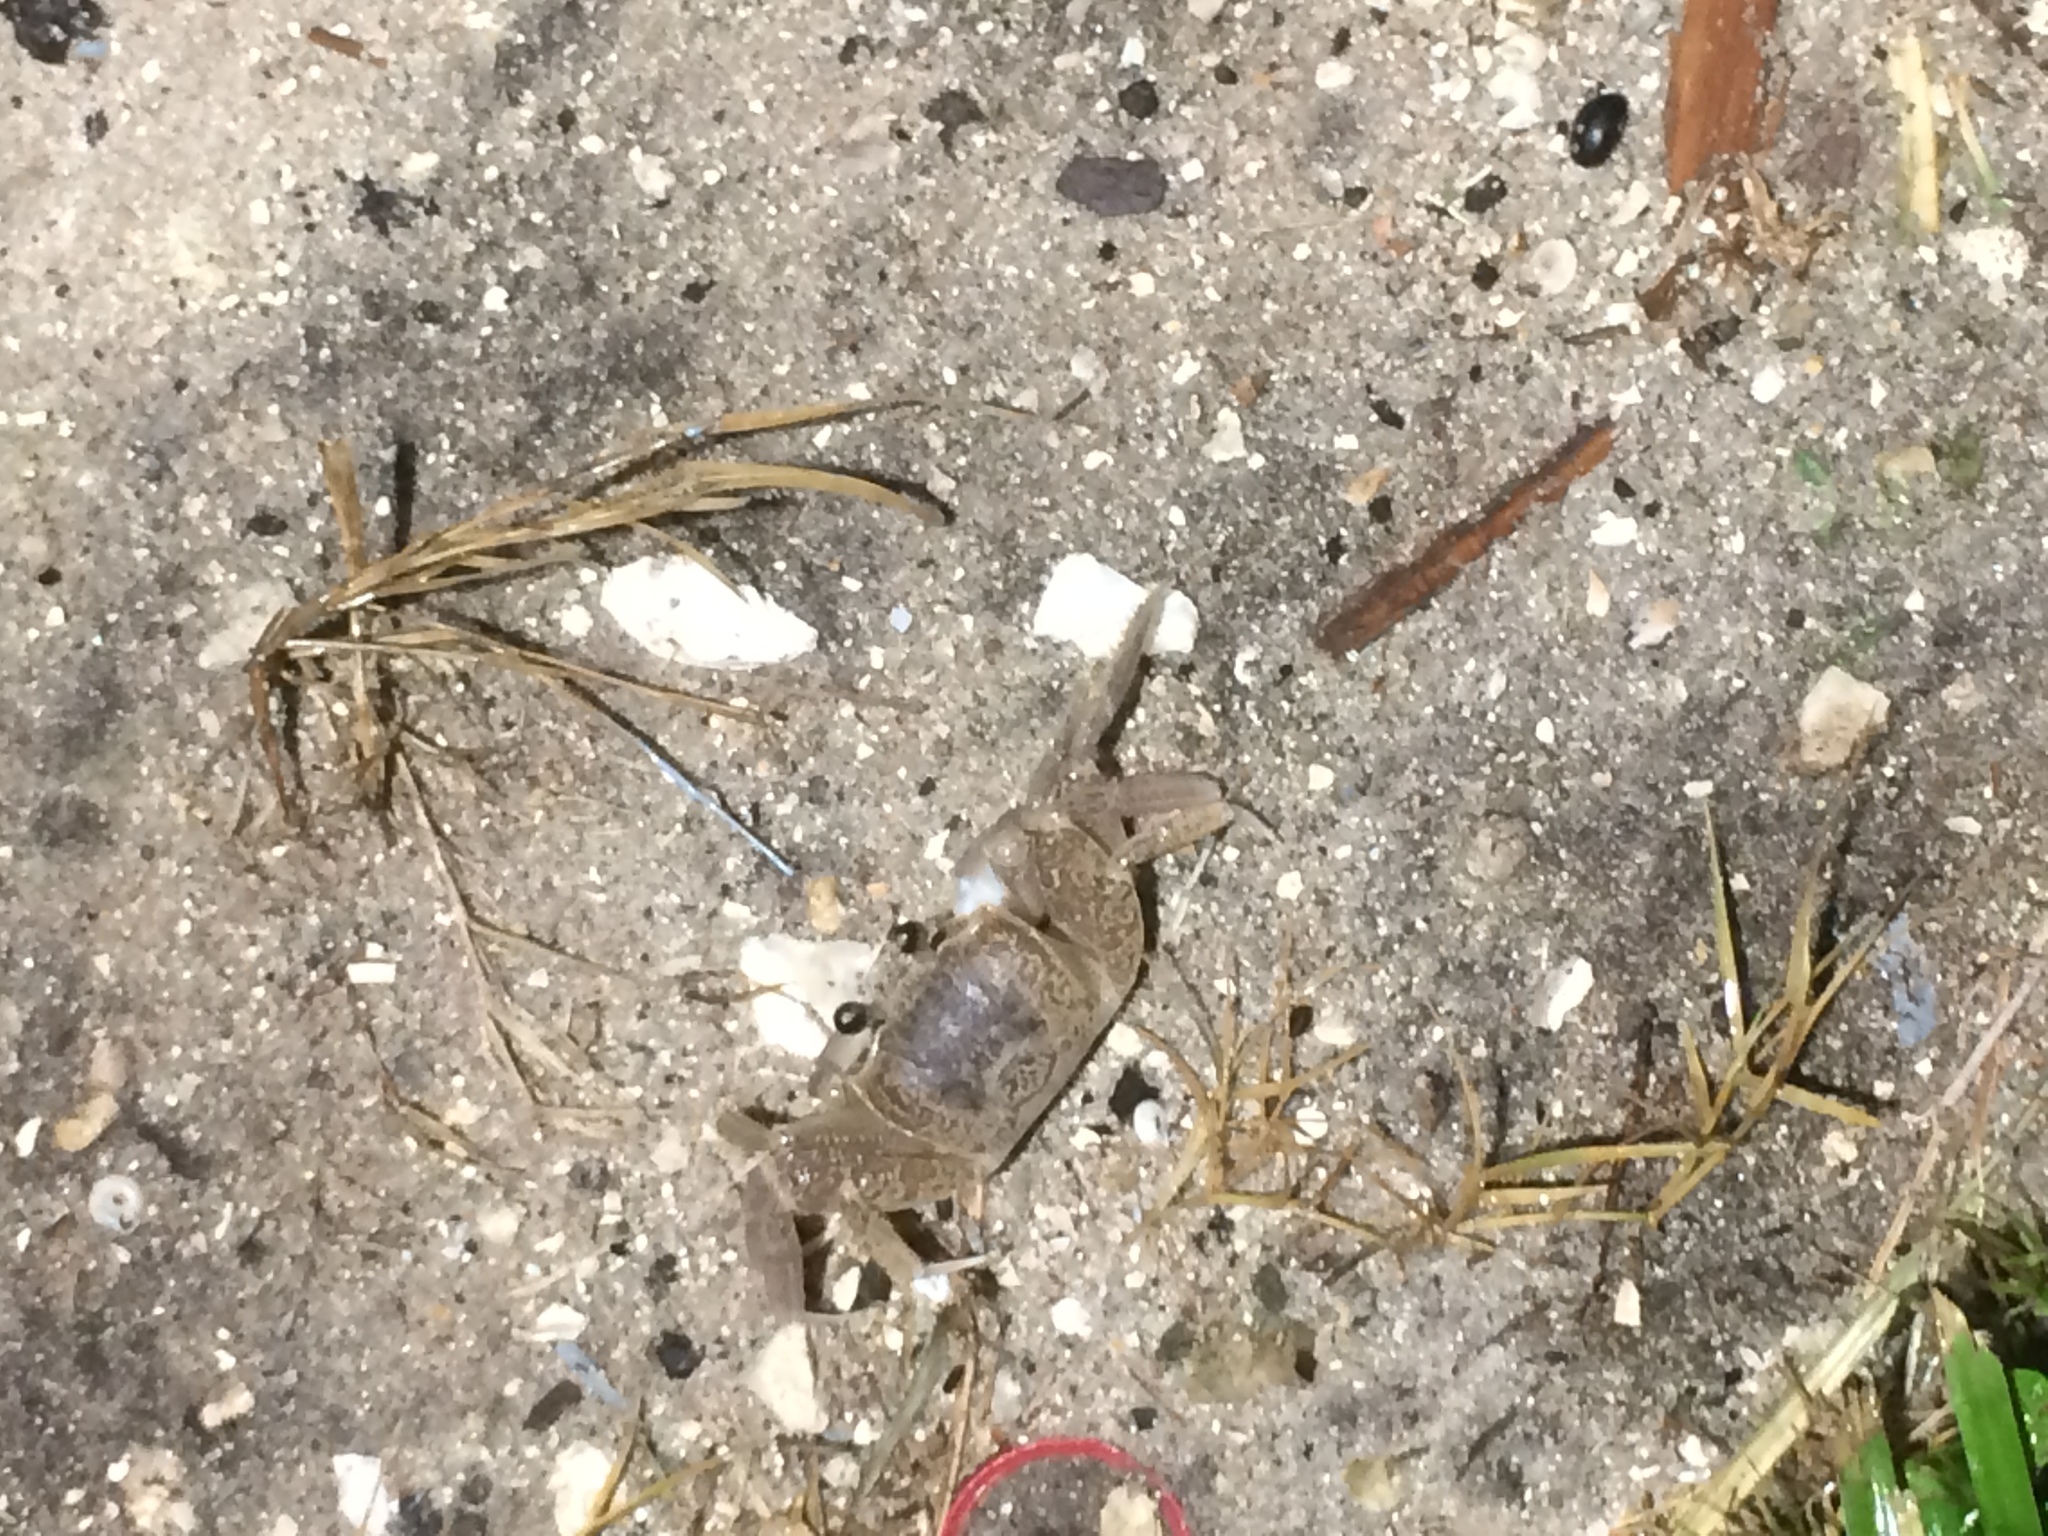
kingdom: Animalia
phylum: Arthropoda
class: Malacostraca
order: Decapoda
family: Ocypodidae
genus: Ocypode
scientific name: Ocypode quadrata
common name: Ghost crab
